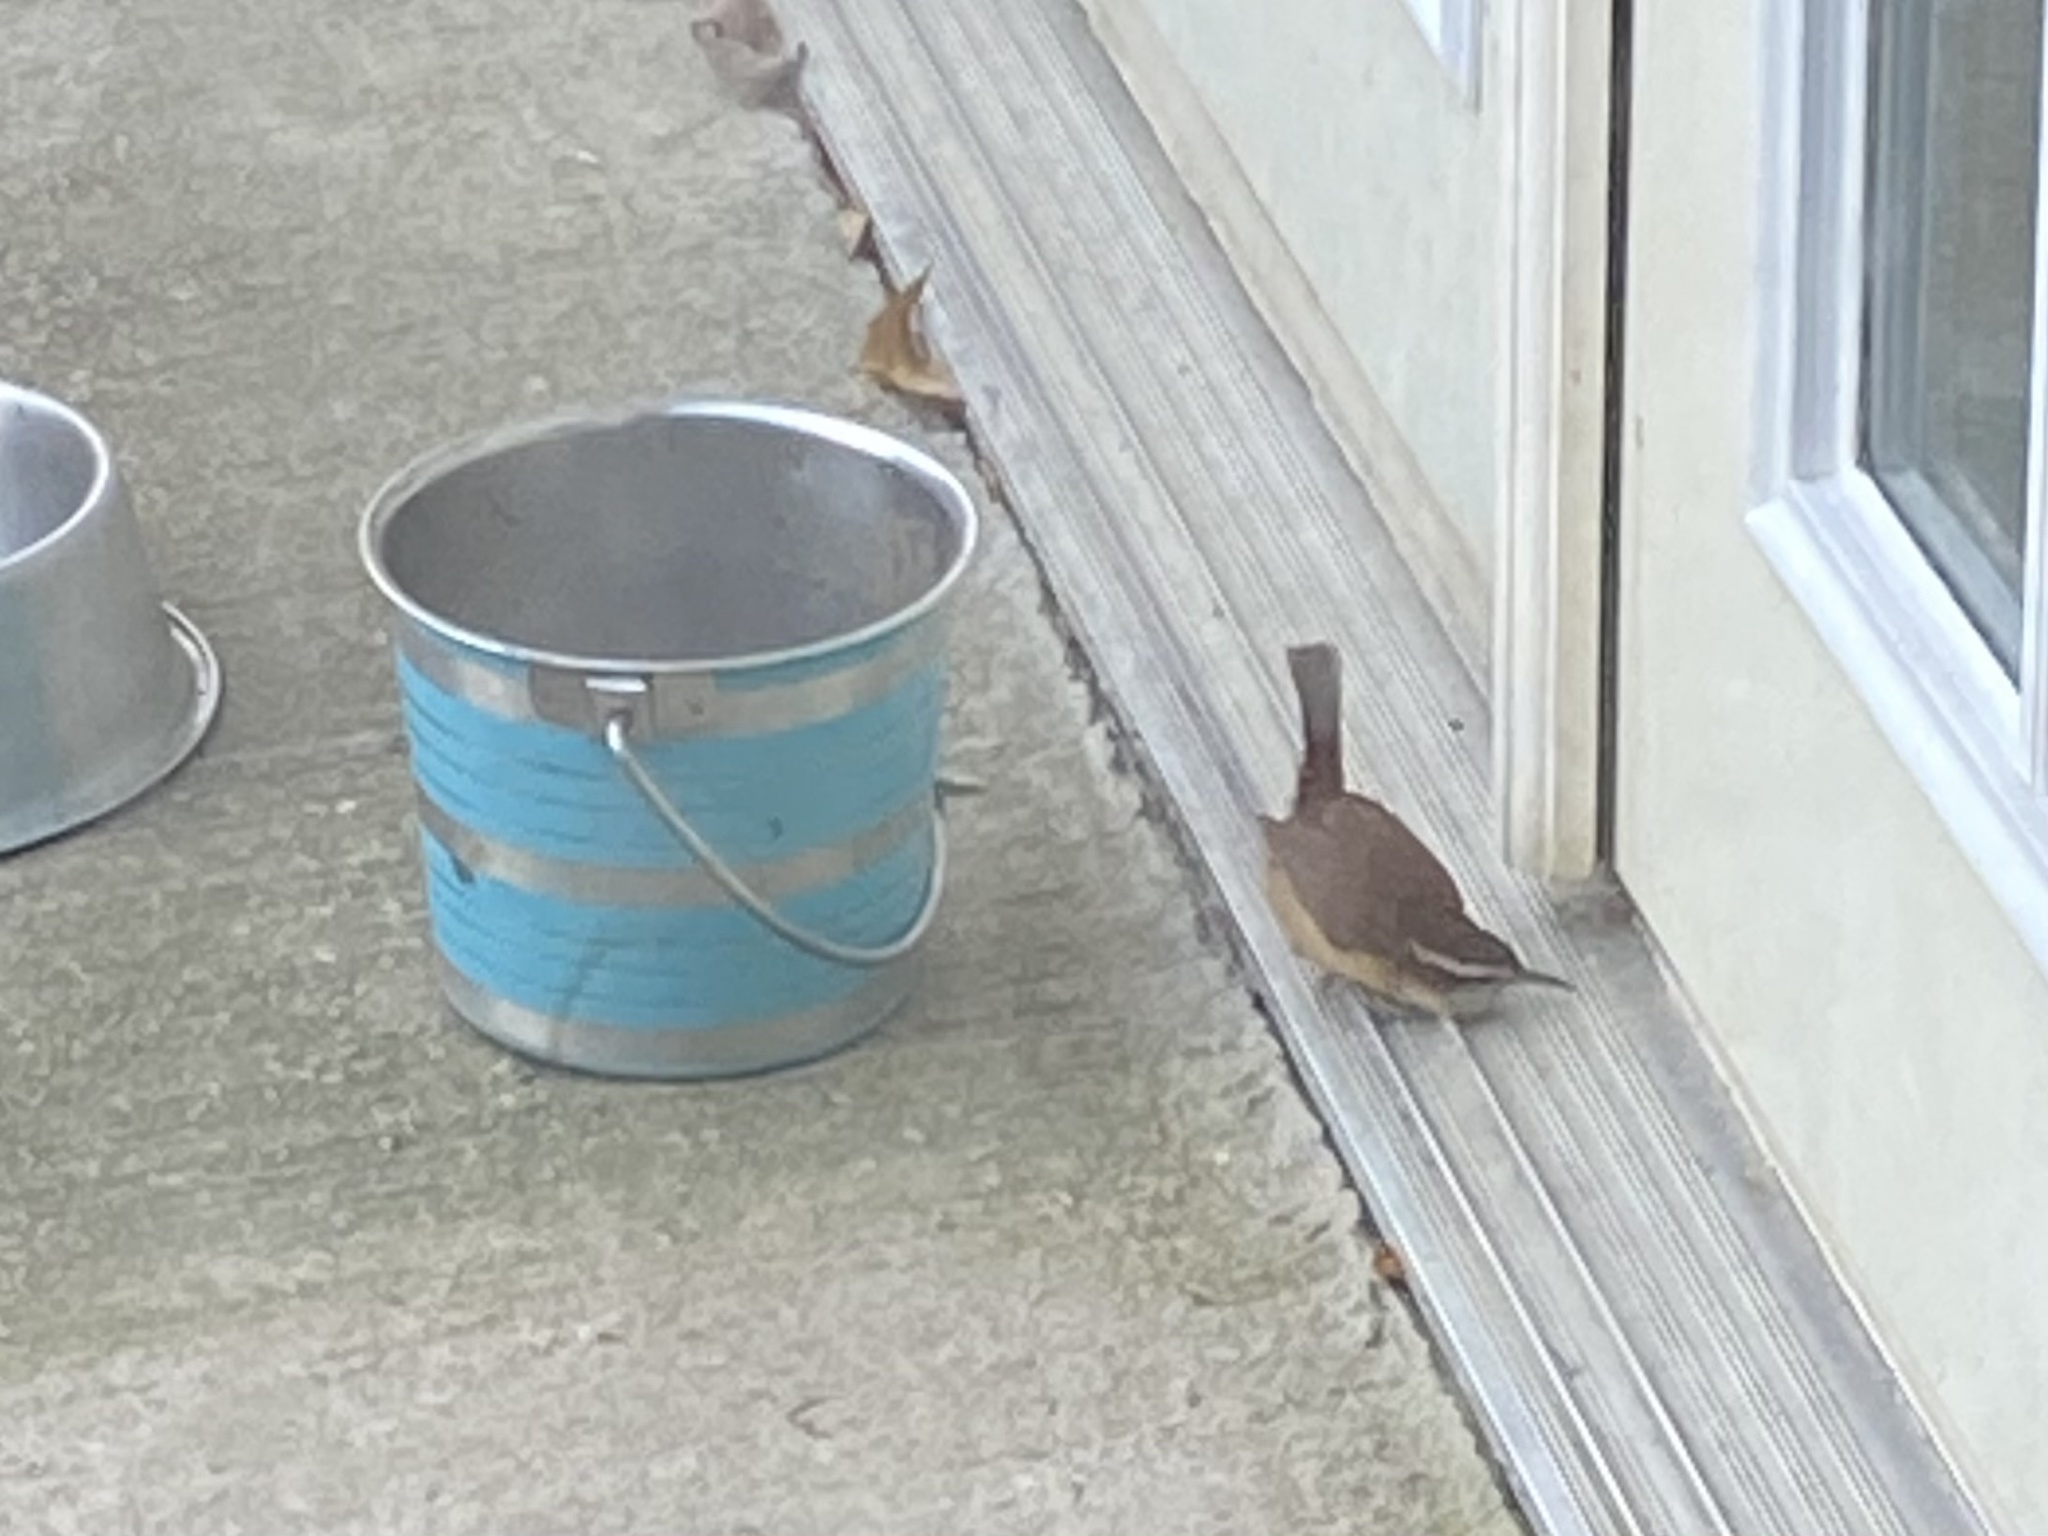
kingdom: Animalia
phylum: Chordata
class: Aves
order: Passeriformes
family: Troglodytidae
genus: Thryothorus
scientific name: Thryothorus ludovicianus
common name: Carolina wren
